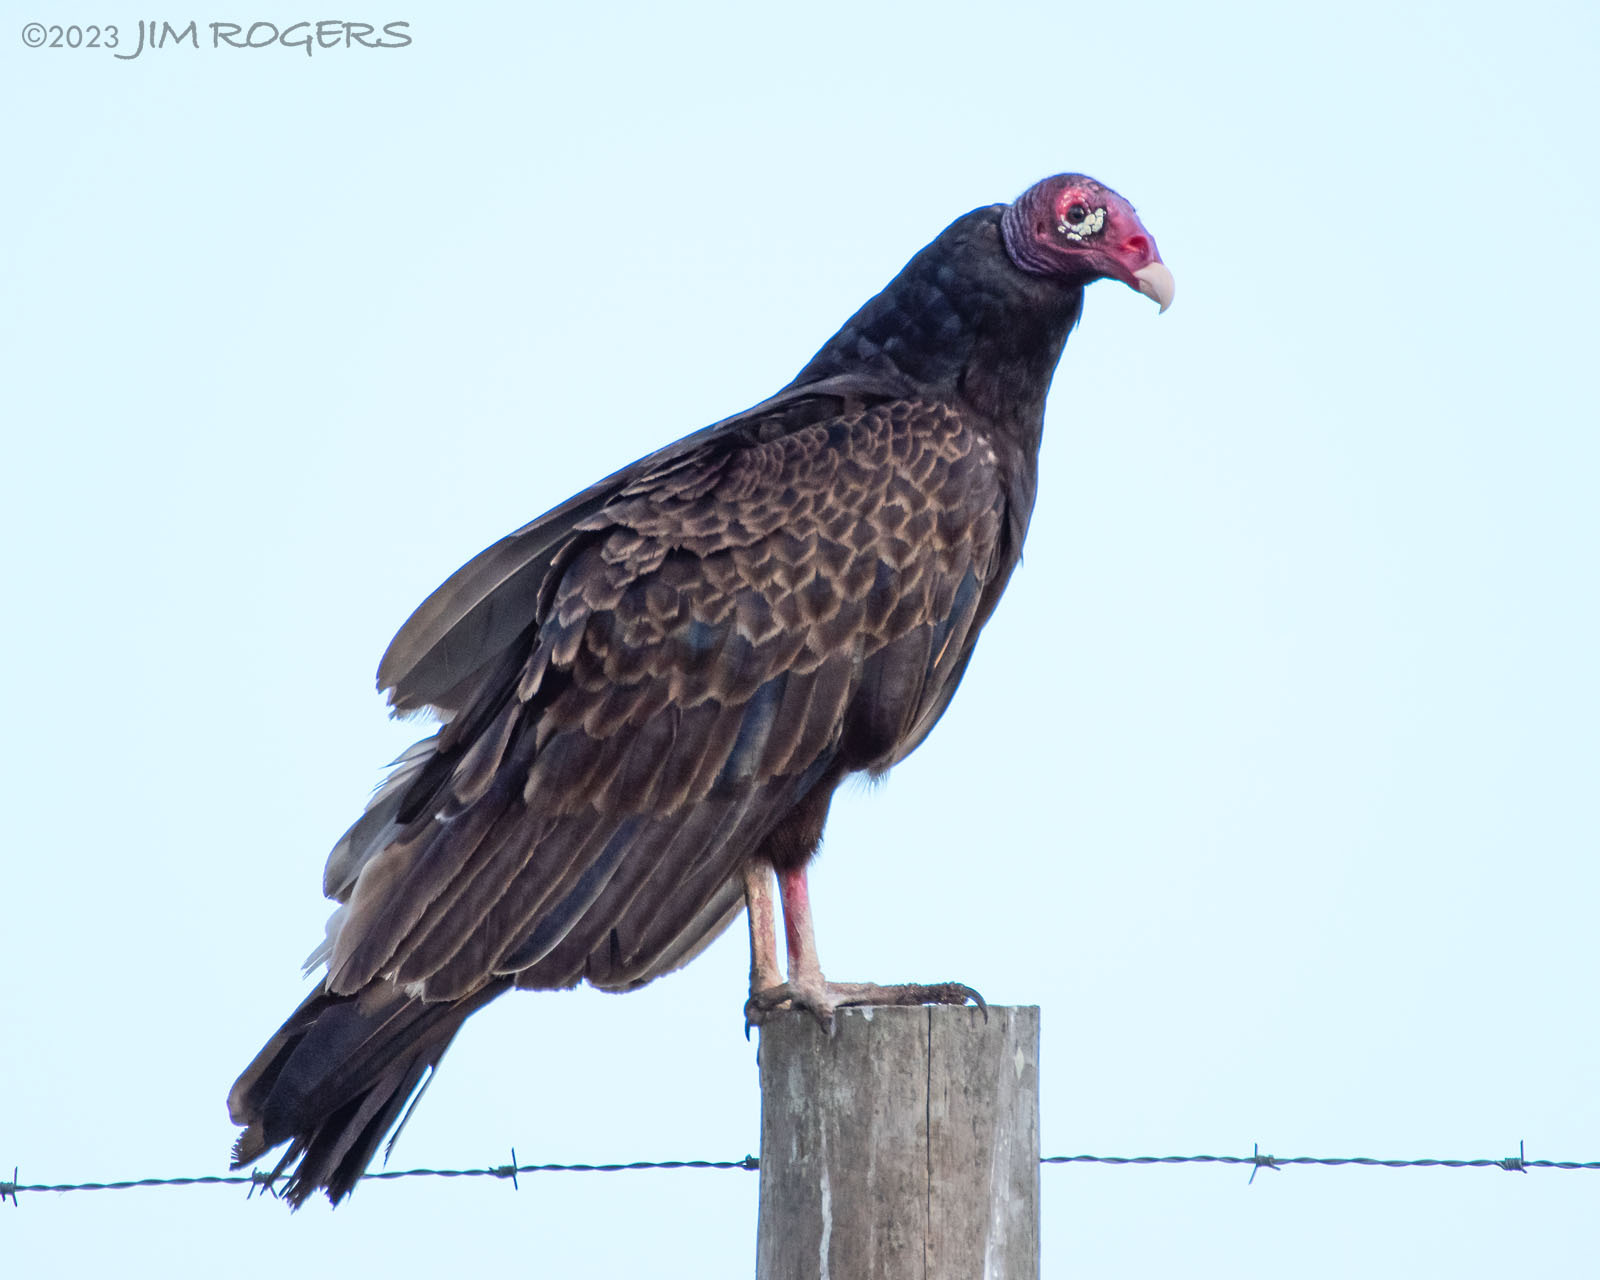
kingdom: Animalia
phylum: Chordata
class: Aves
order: Accipitriformes
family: Cathartidae
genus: Cathartes
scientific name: Cathartes aura
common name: Turkey vulture
